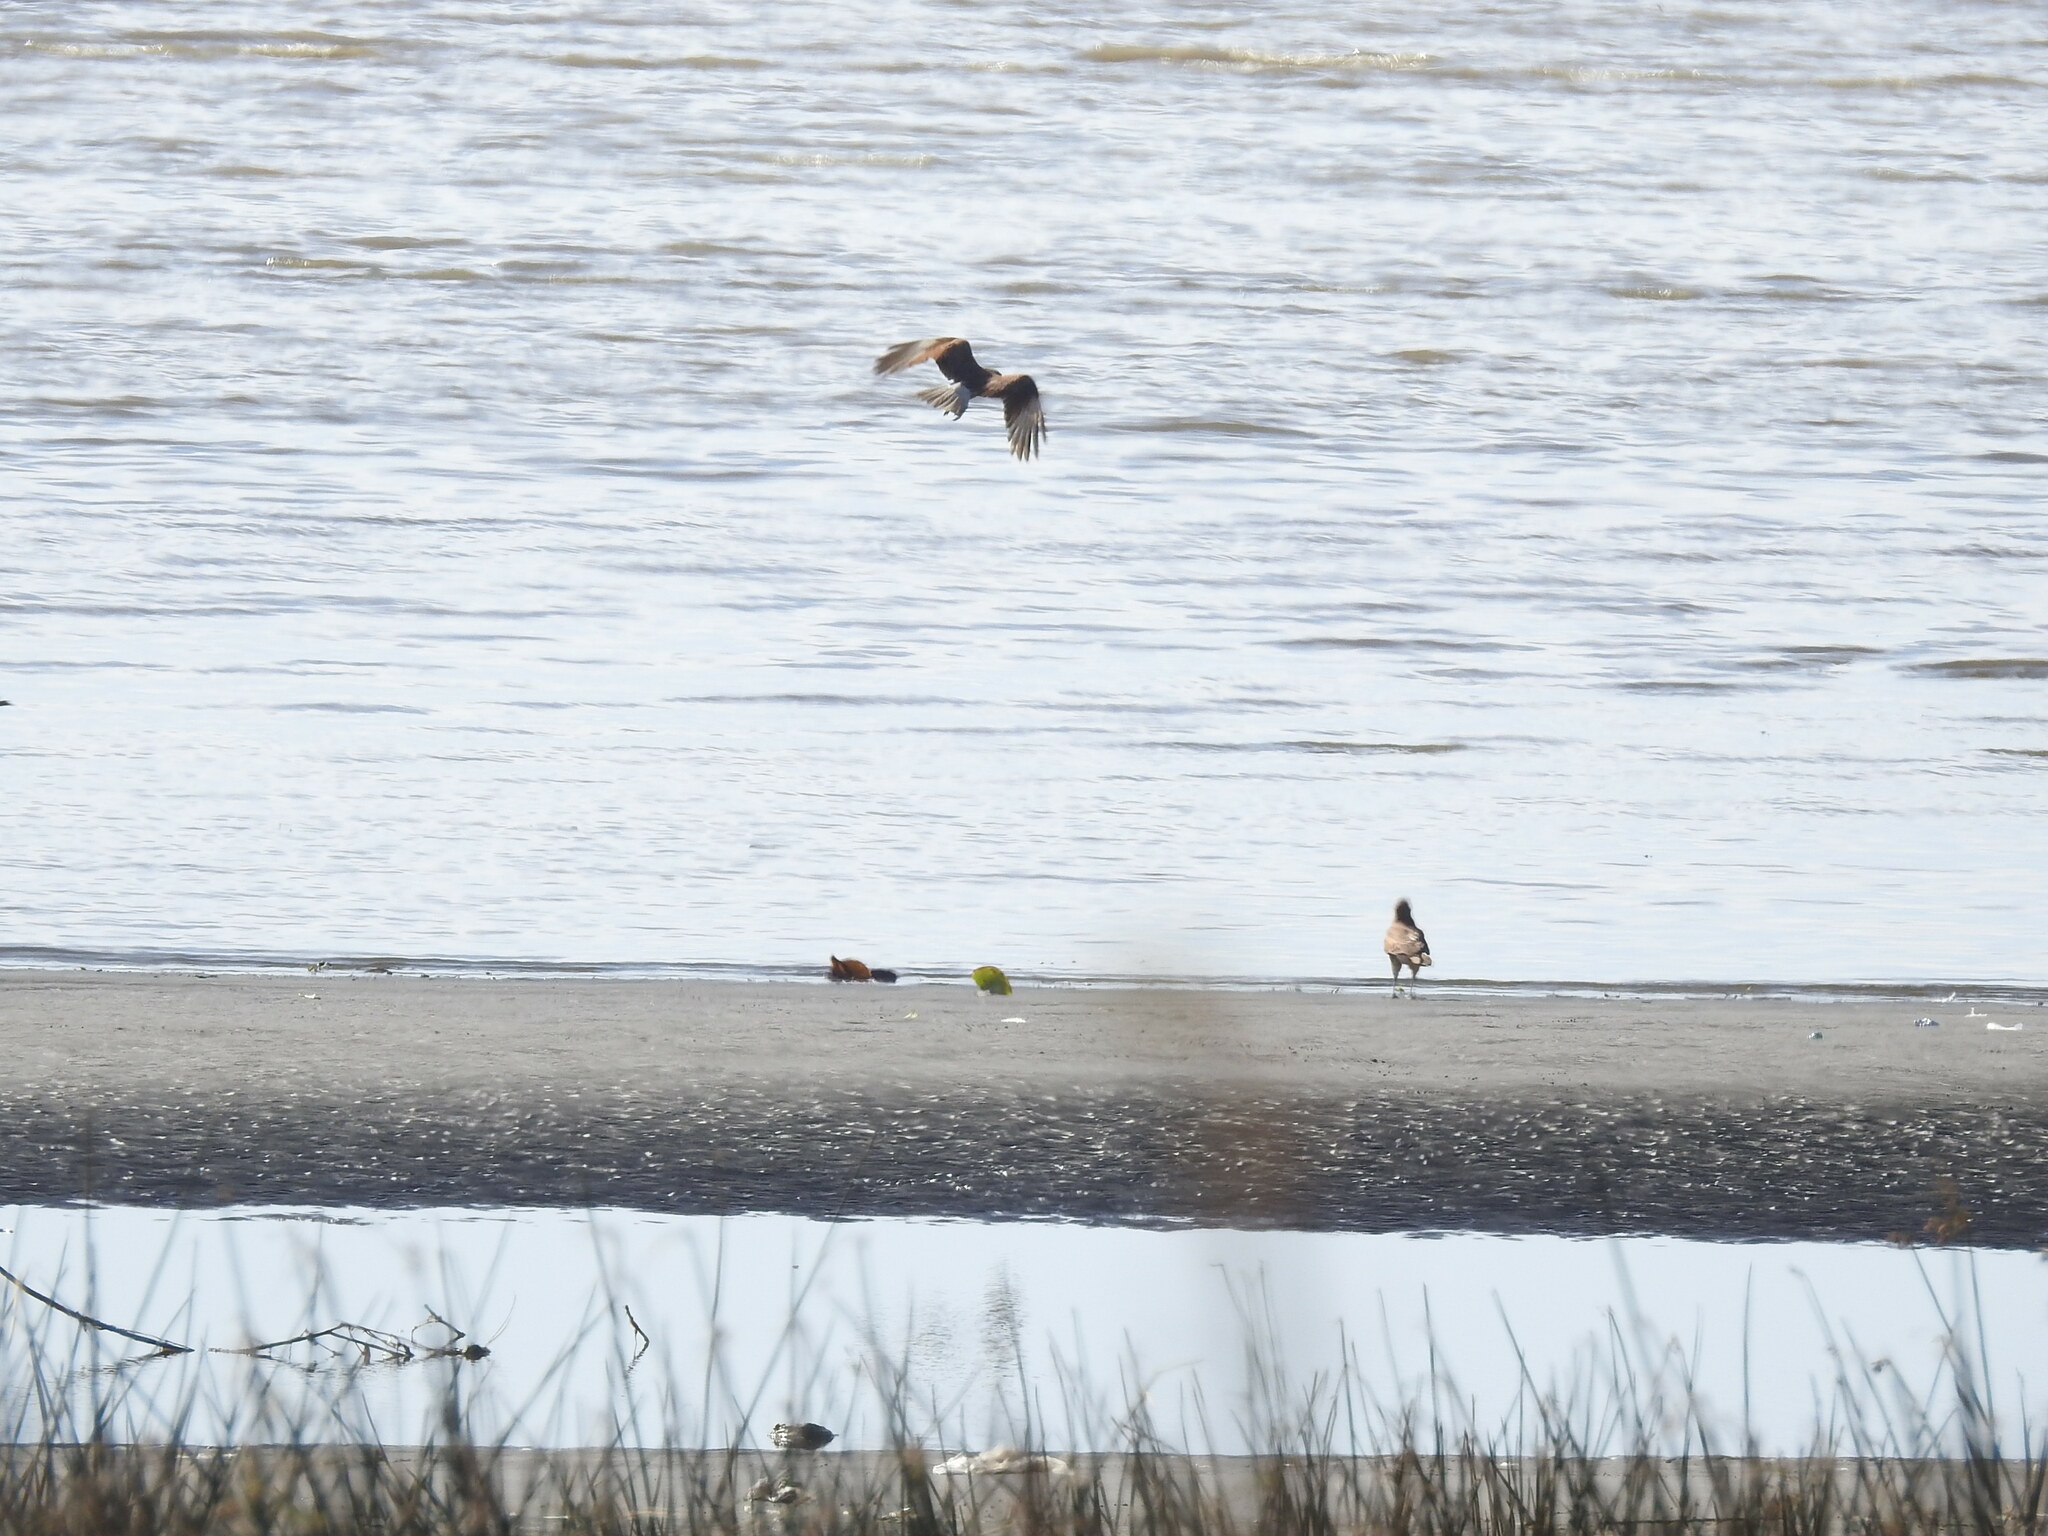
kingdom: Animalia
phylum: Chordata
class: Aves
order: Falconiformes
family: Falconidae
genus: Daptrius
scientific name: Daptrius
